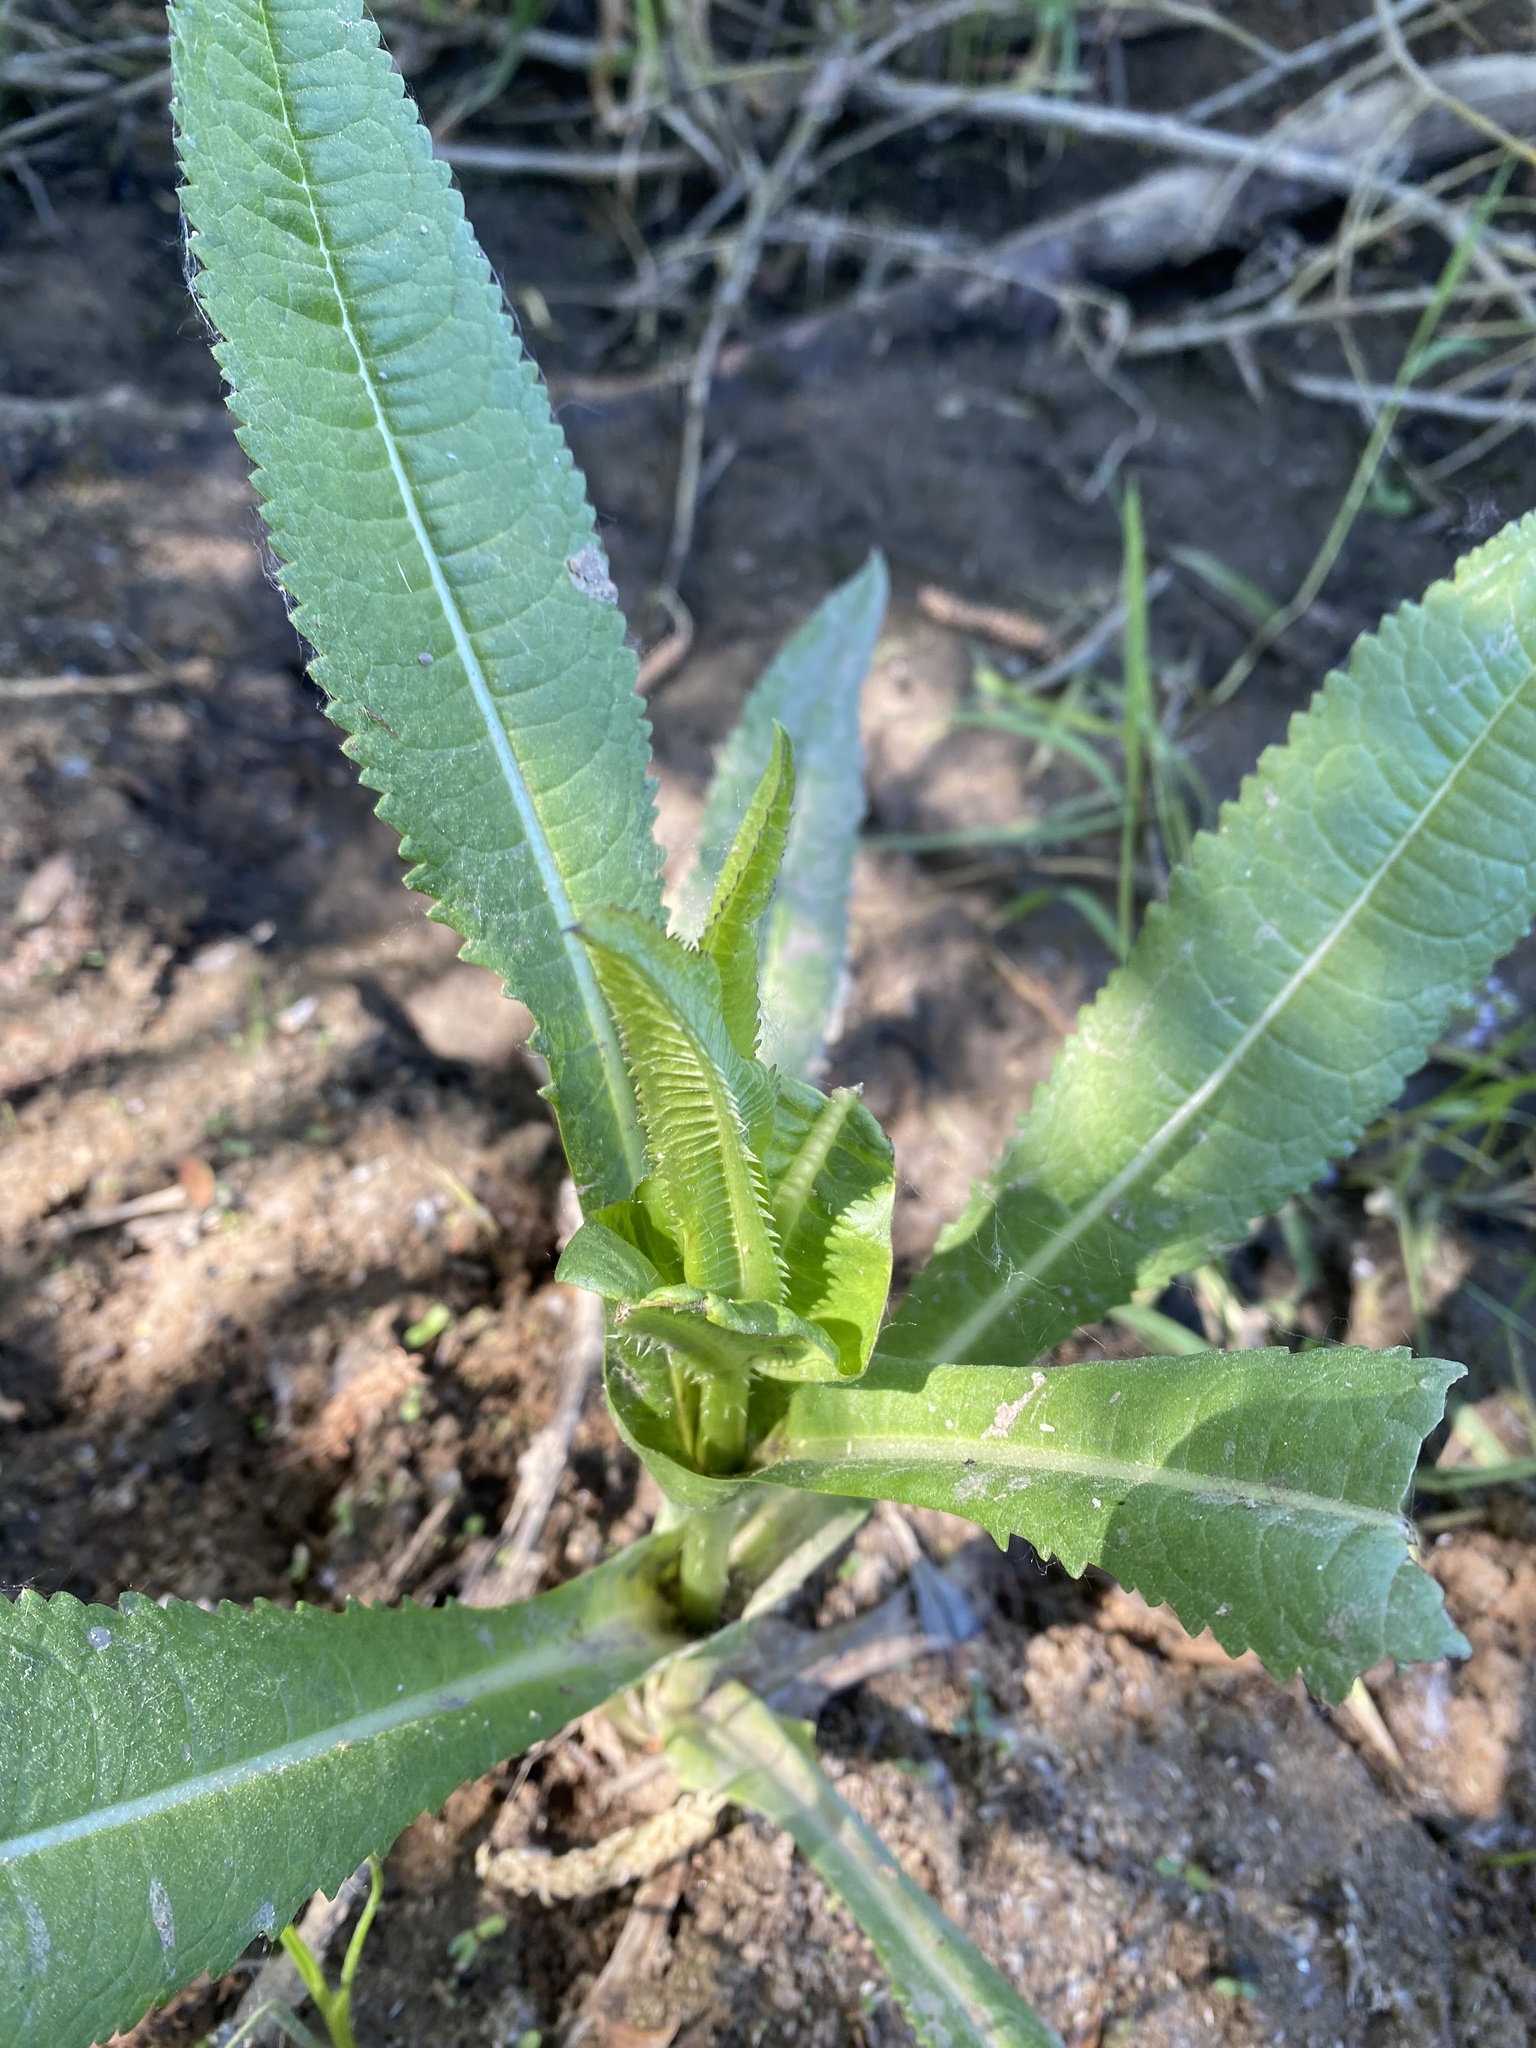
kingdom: Plantae
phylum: Tracheophyta
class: Magnoliopsida
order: Dipsacales
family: Caprifoliaceae
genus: Dipsacus
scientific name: Dipsacus fullonum
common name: Teasel
